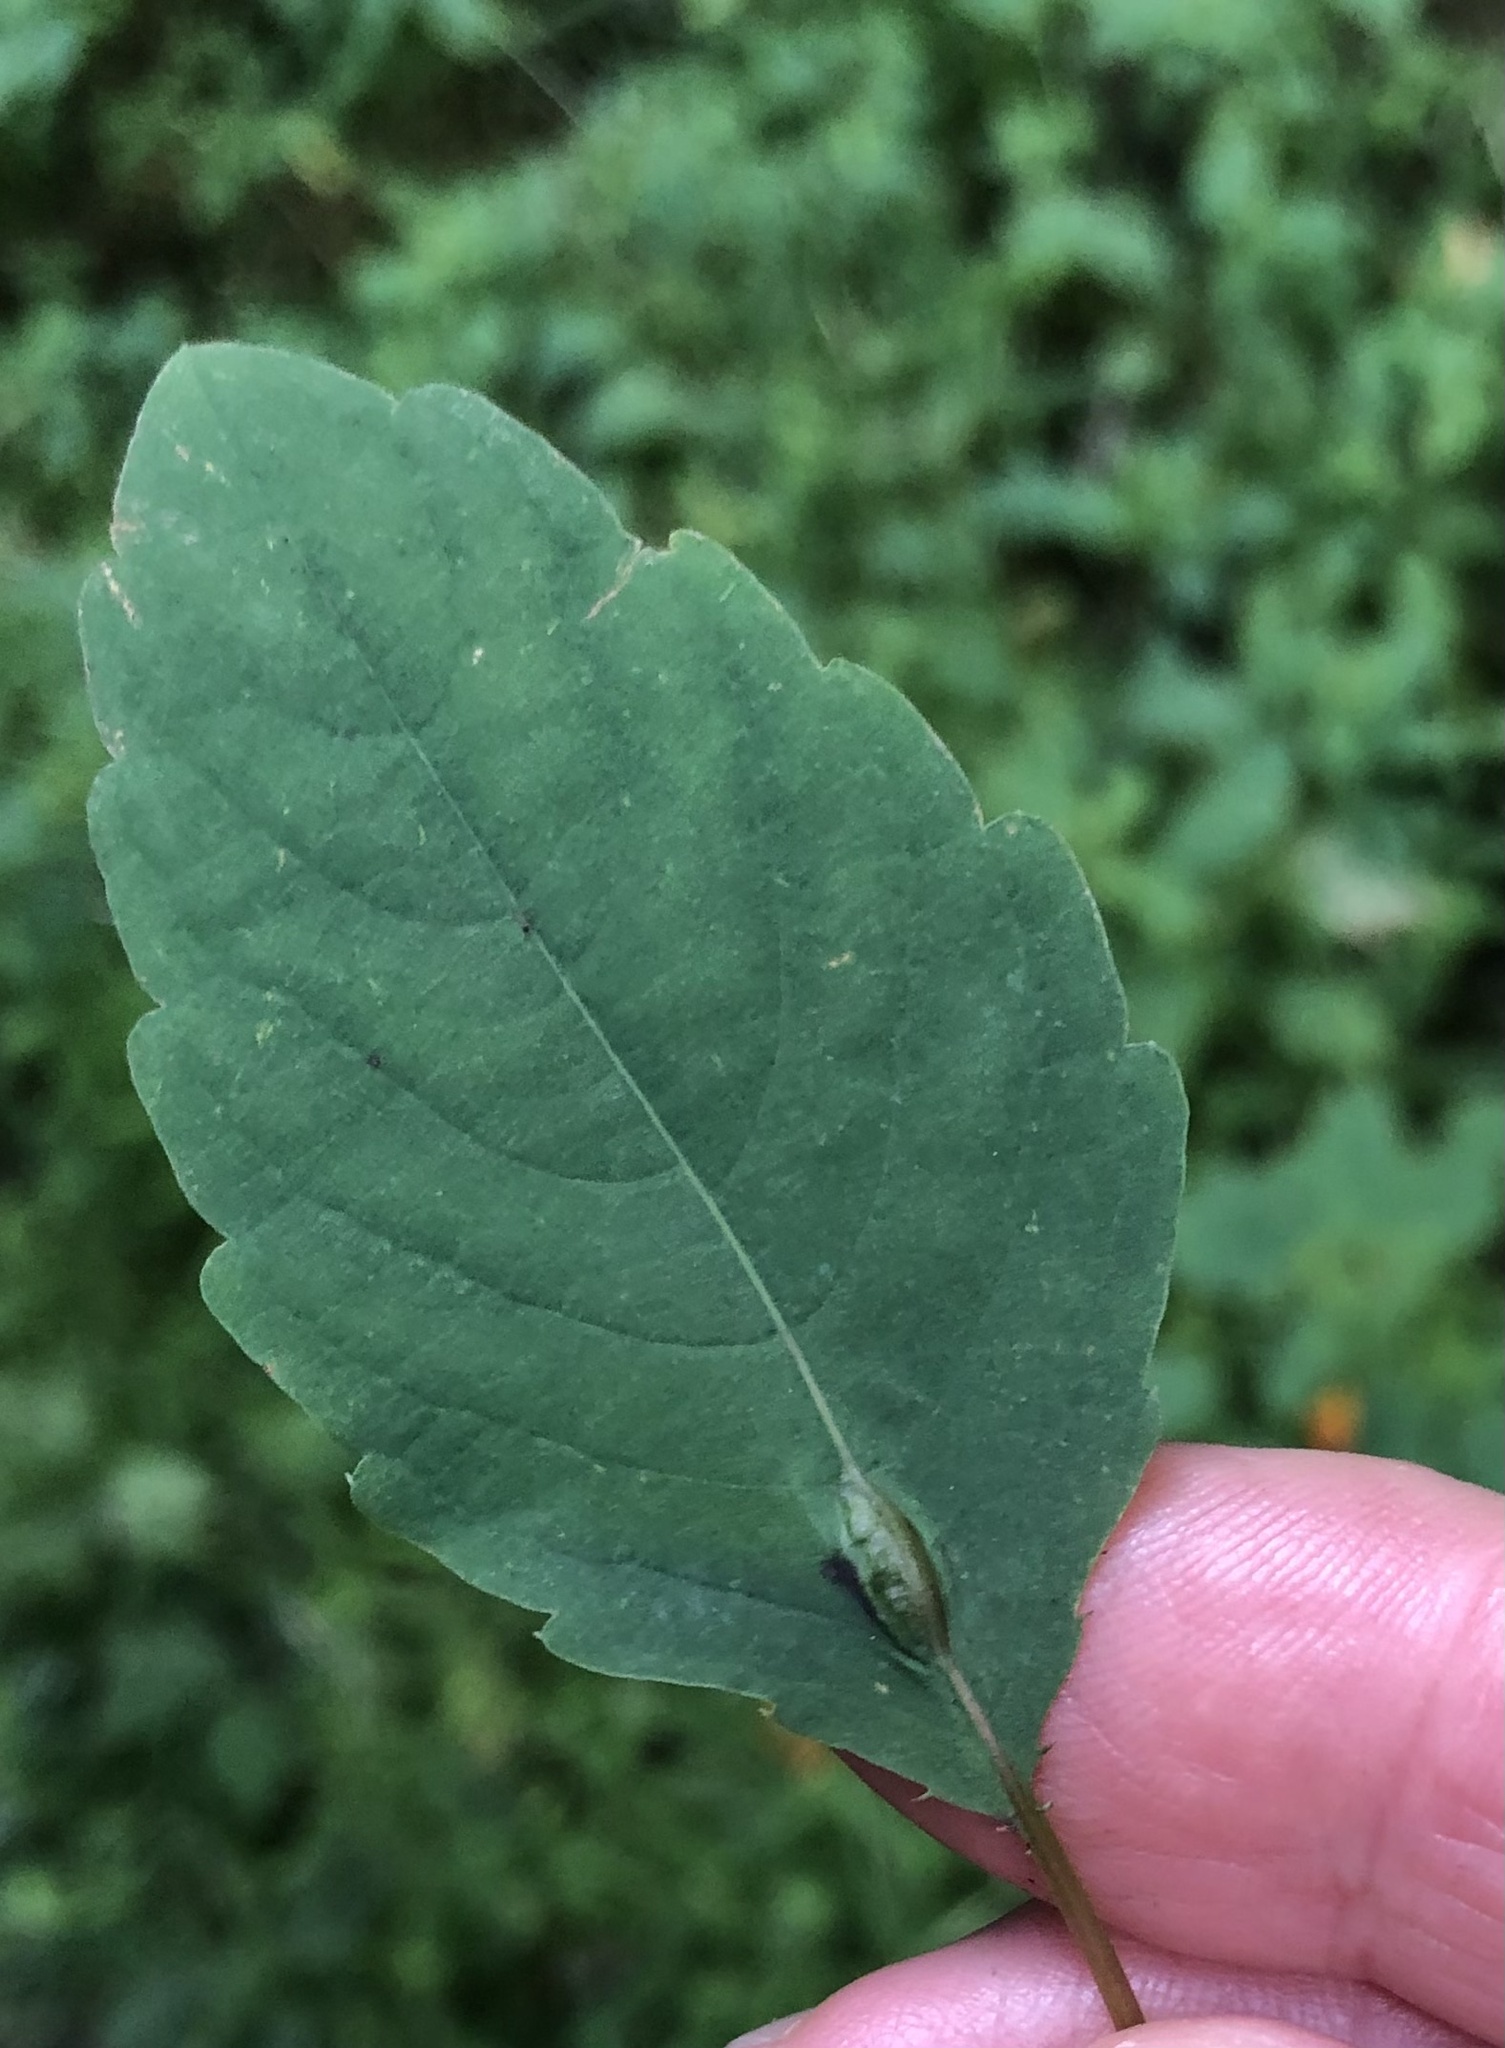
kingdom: Animalia
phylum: Arthropoda
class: Insecta
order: Diptera
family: Cecidomyiidae
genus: Neolasioptera
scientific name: Neolasioptera impatientifolia
